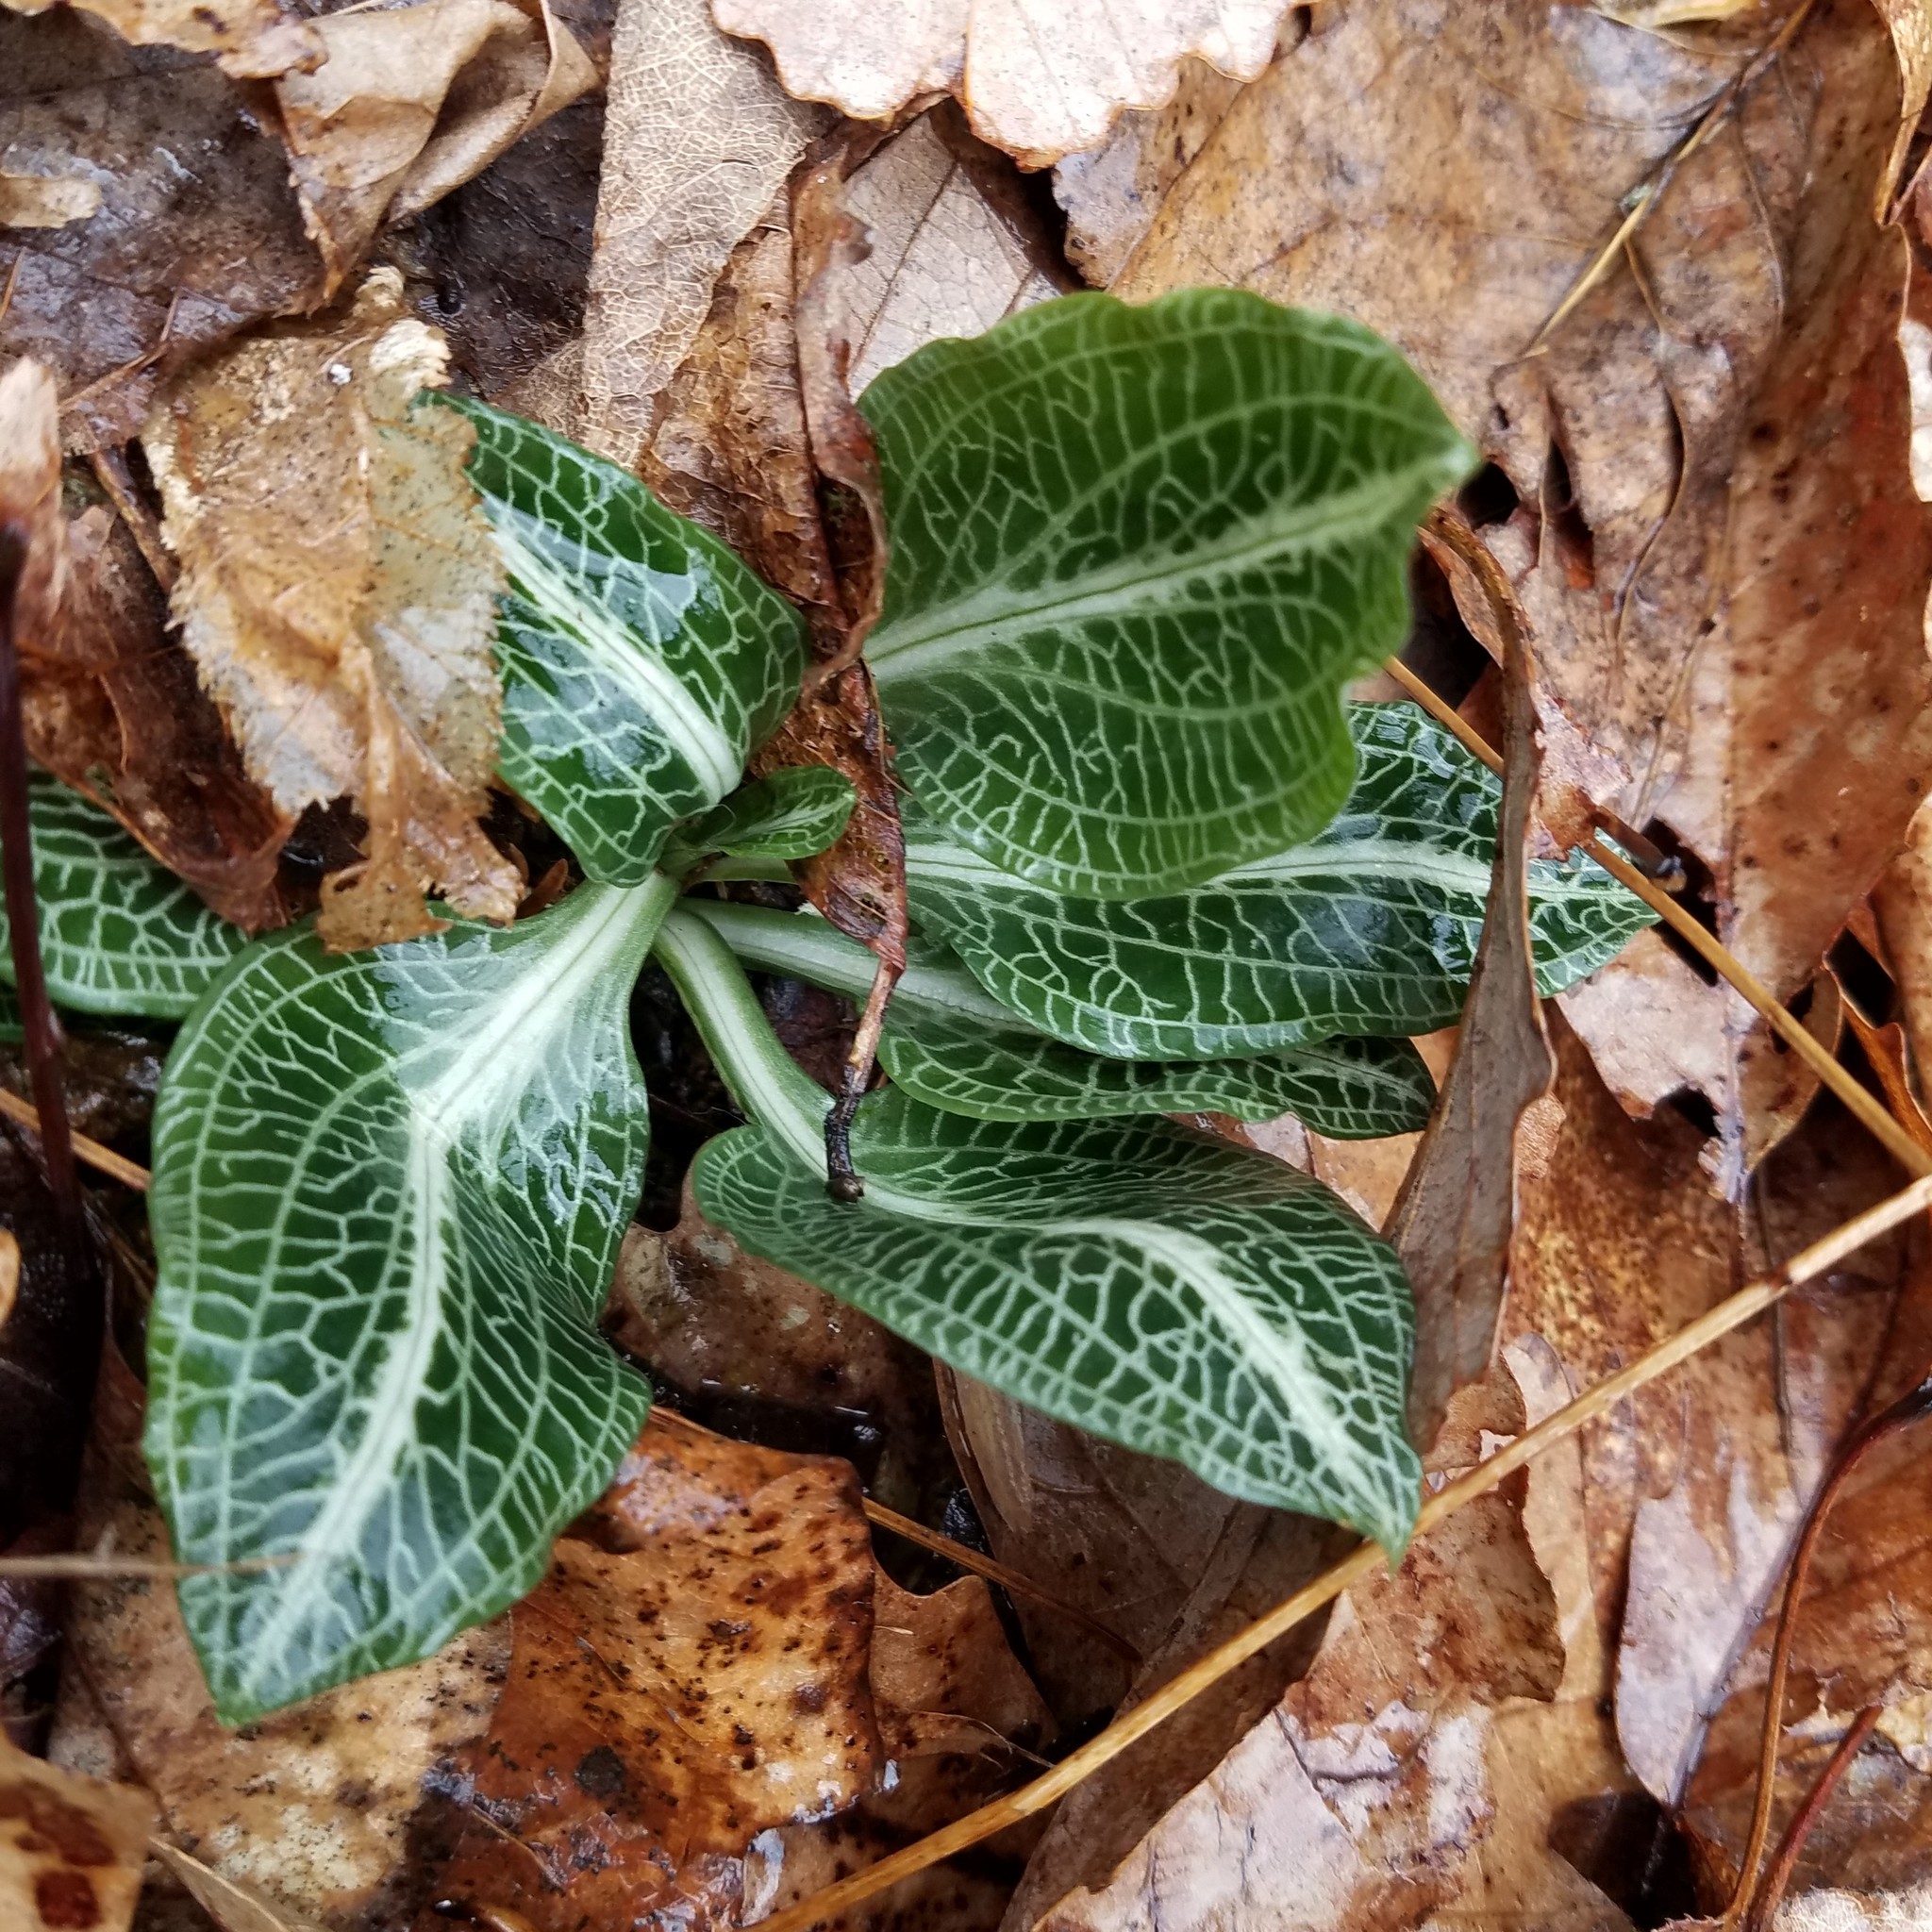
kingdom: Plantae
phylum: Tracheophyta
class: Liliopsida
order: Asparagales
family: Orchidaceae
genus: Goodyera
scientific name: Goodyera pubescens
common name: Downy rattlesnake-plantain
